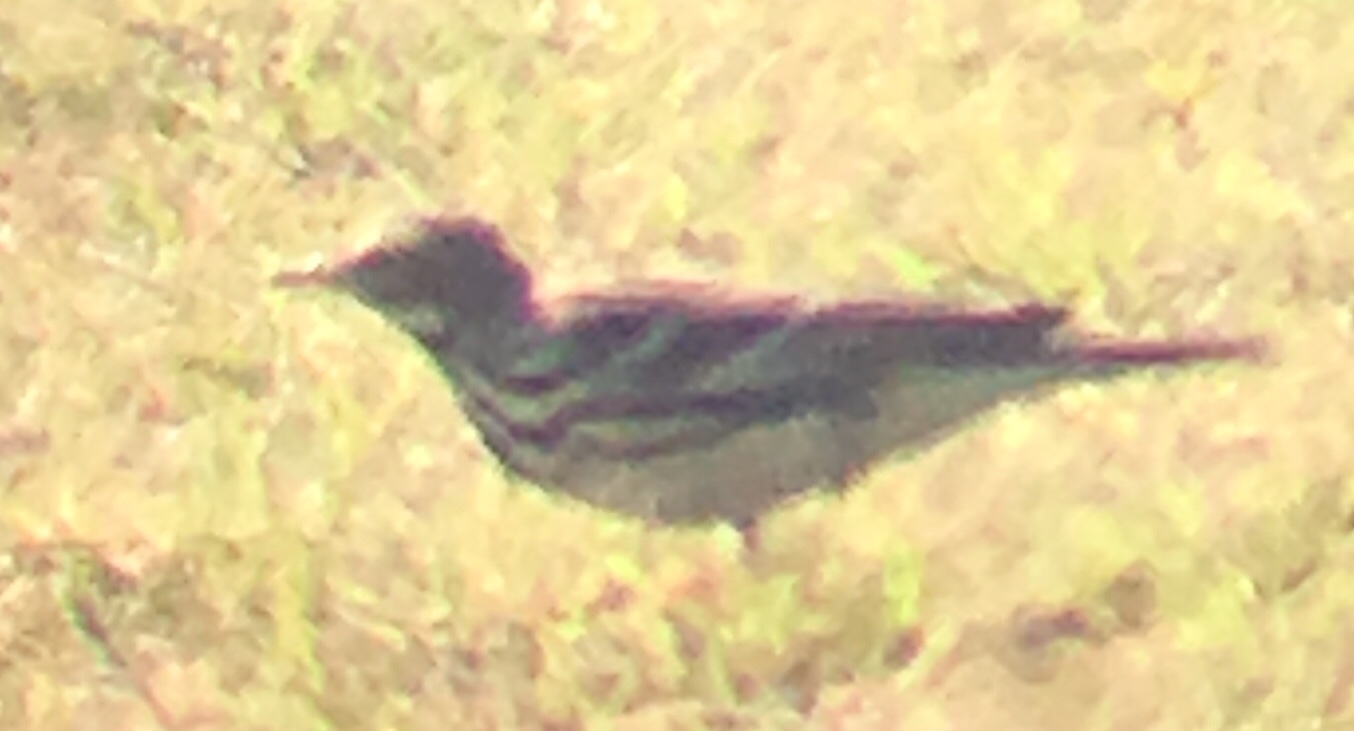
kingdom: Animalia
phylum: Chordata
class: Aves
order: Passeriformes
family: Motacillidae
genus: Anthus
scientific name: Anthus cervinus
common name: Red-throated pipit
